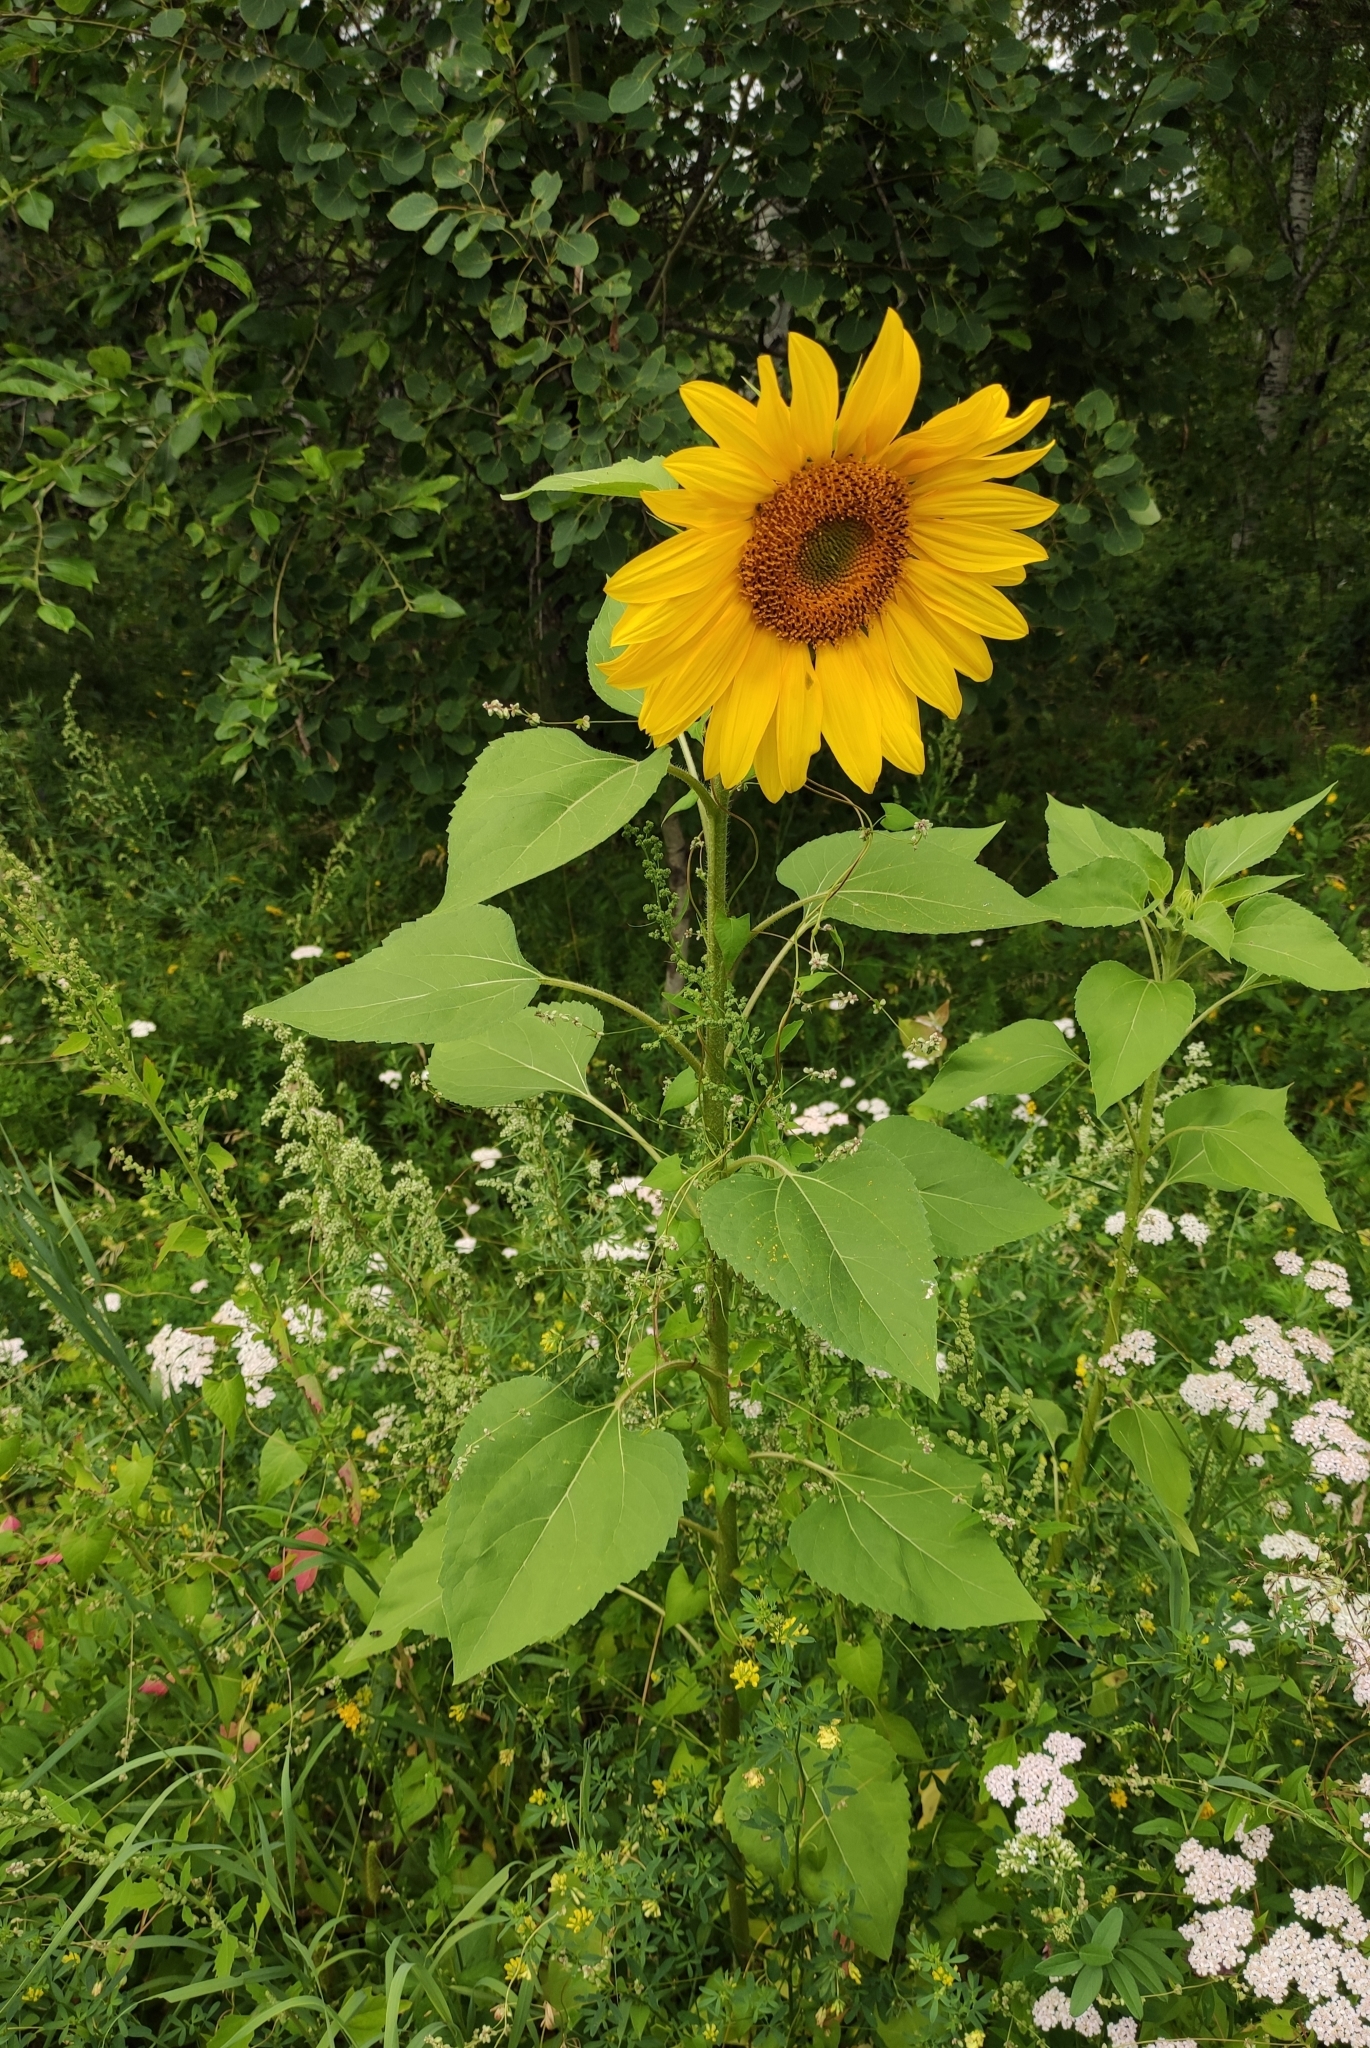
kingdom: Plantae
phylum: Tracheophyta
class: Magnoliopsida
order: Asterales
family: Asteraceae
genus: Helianthus
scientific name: Helianthus annuus
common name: Sunflower
